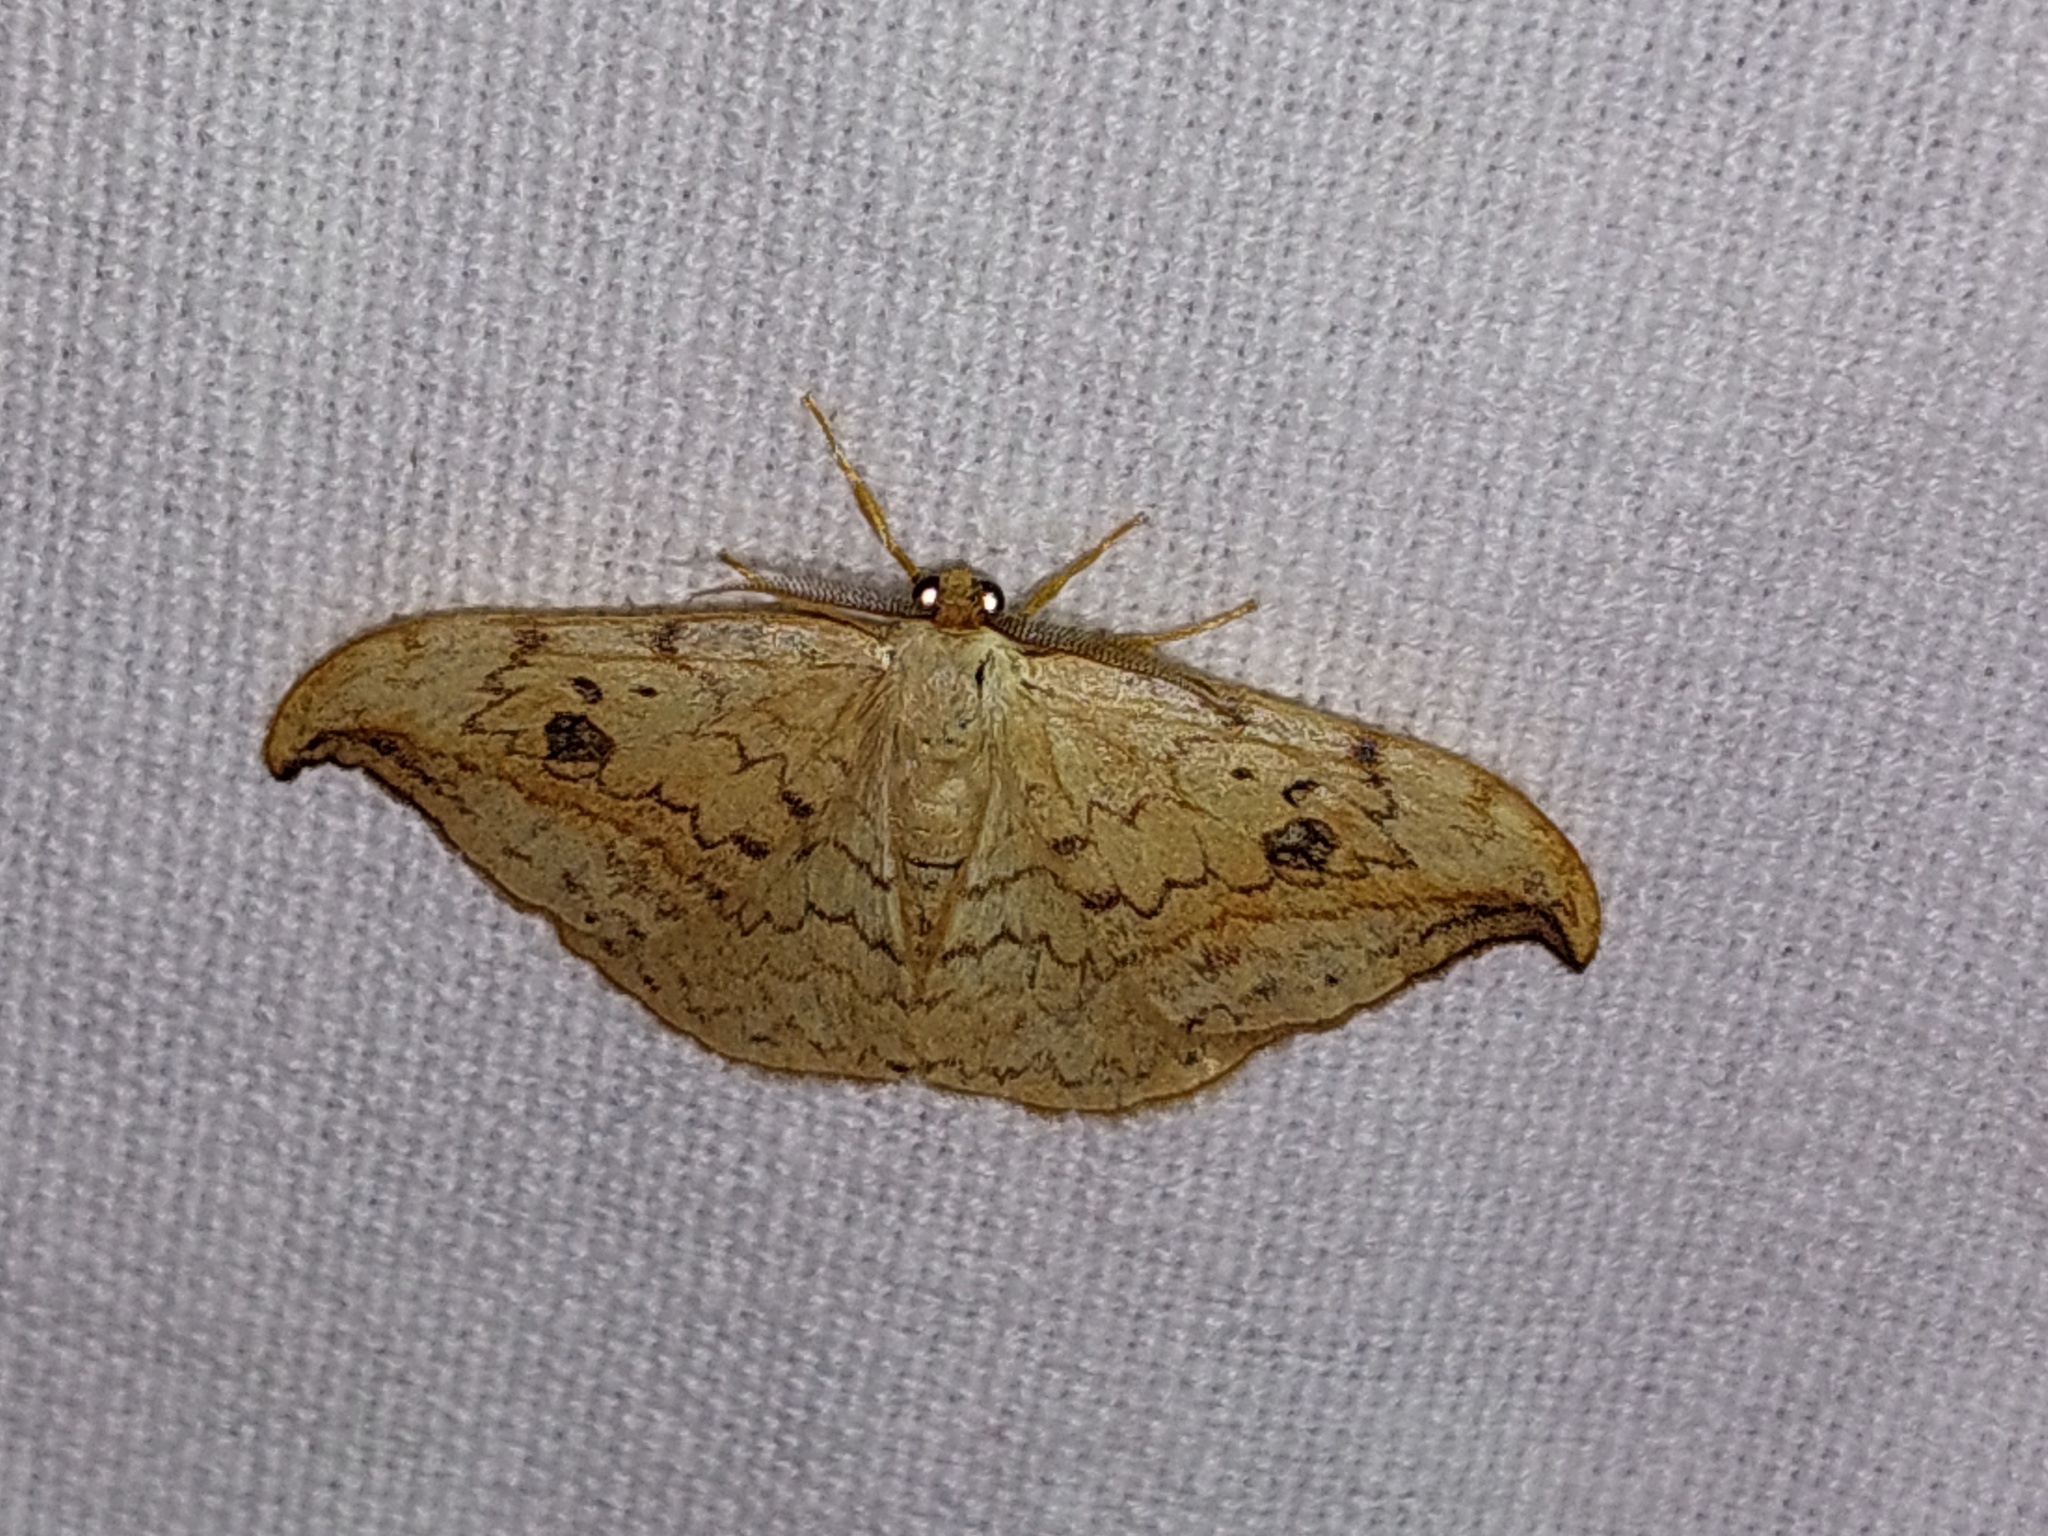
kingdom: Animalia
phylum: Arthropoda
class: Insecta
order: Lepidoptera
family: Drepanidae
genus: Drepana
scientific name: Drepana falcataria
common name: Pebble hook-tip
